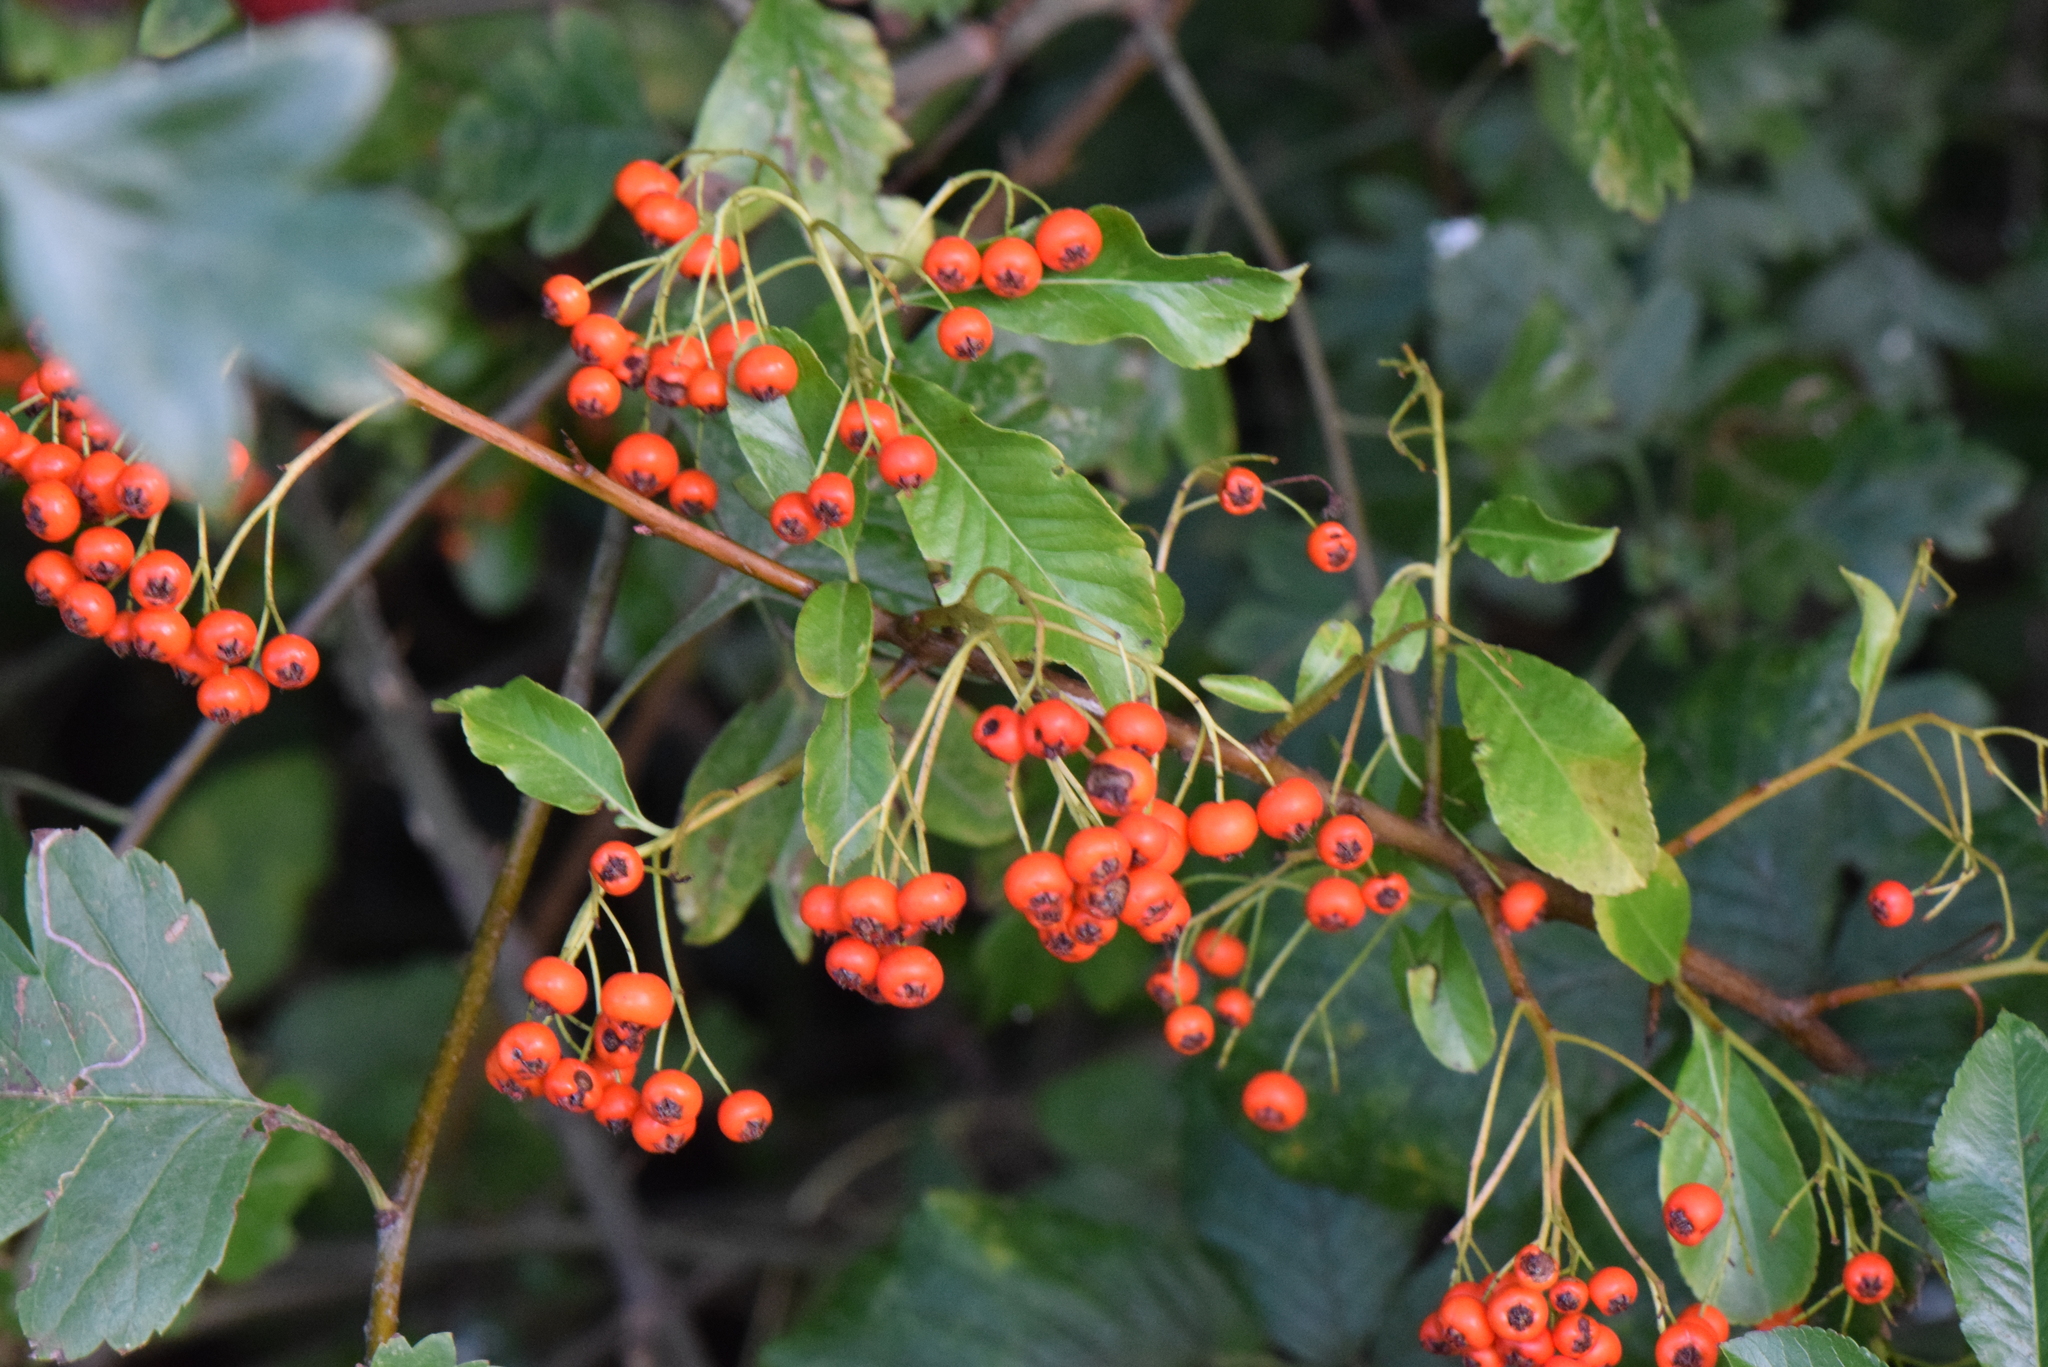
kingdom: Plantae
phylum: Tracheophyta
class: Magnoliopsida
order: Rosales
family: Rosaceae
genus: Pyracantha
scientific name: Pyracantha coccinea
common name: Firethorn
